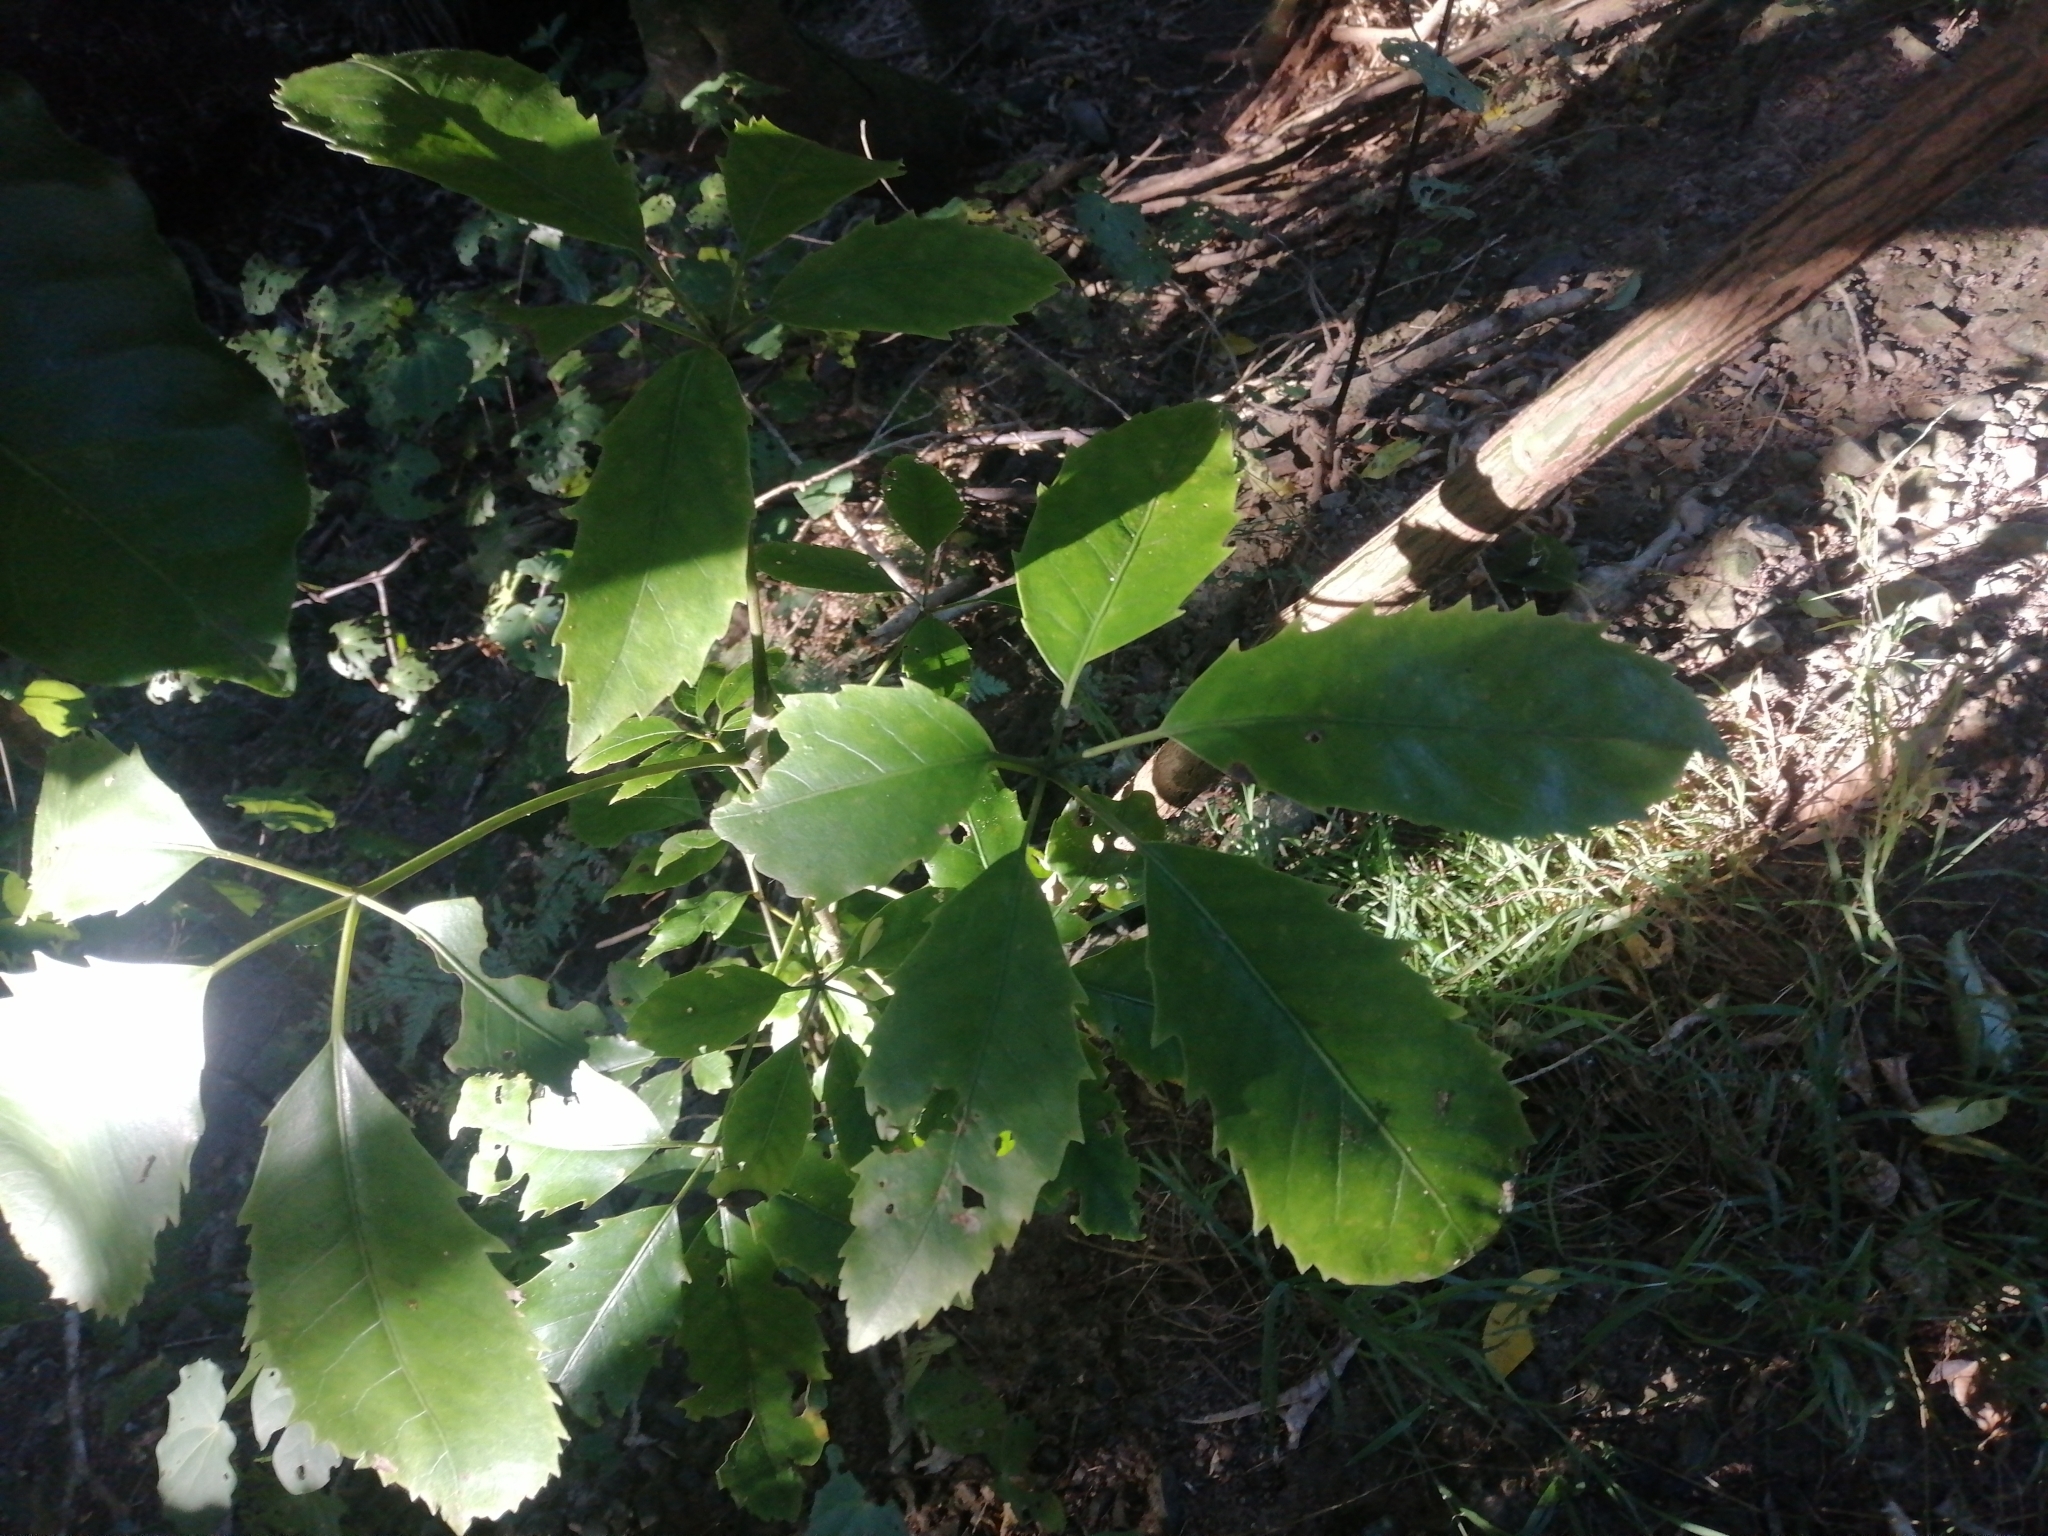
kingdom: Plantae
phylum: Tracheophyta
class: Magnoliopsida
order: Apiales
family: Araliaceae
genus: Neopanax
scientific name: Neopanax arboreus
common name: Five-fingers
